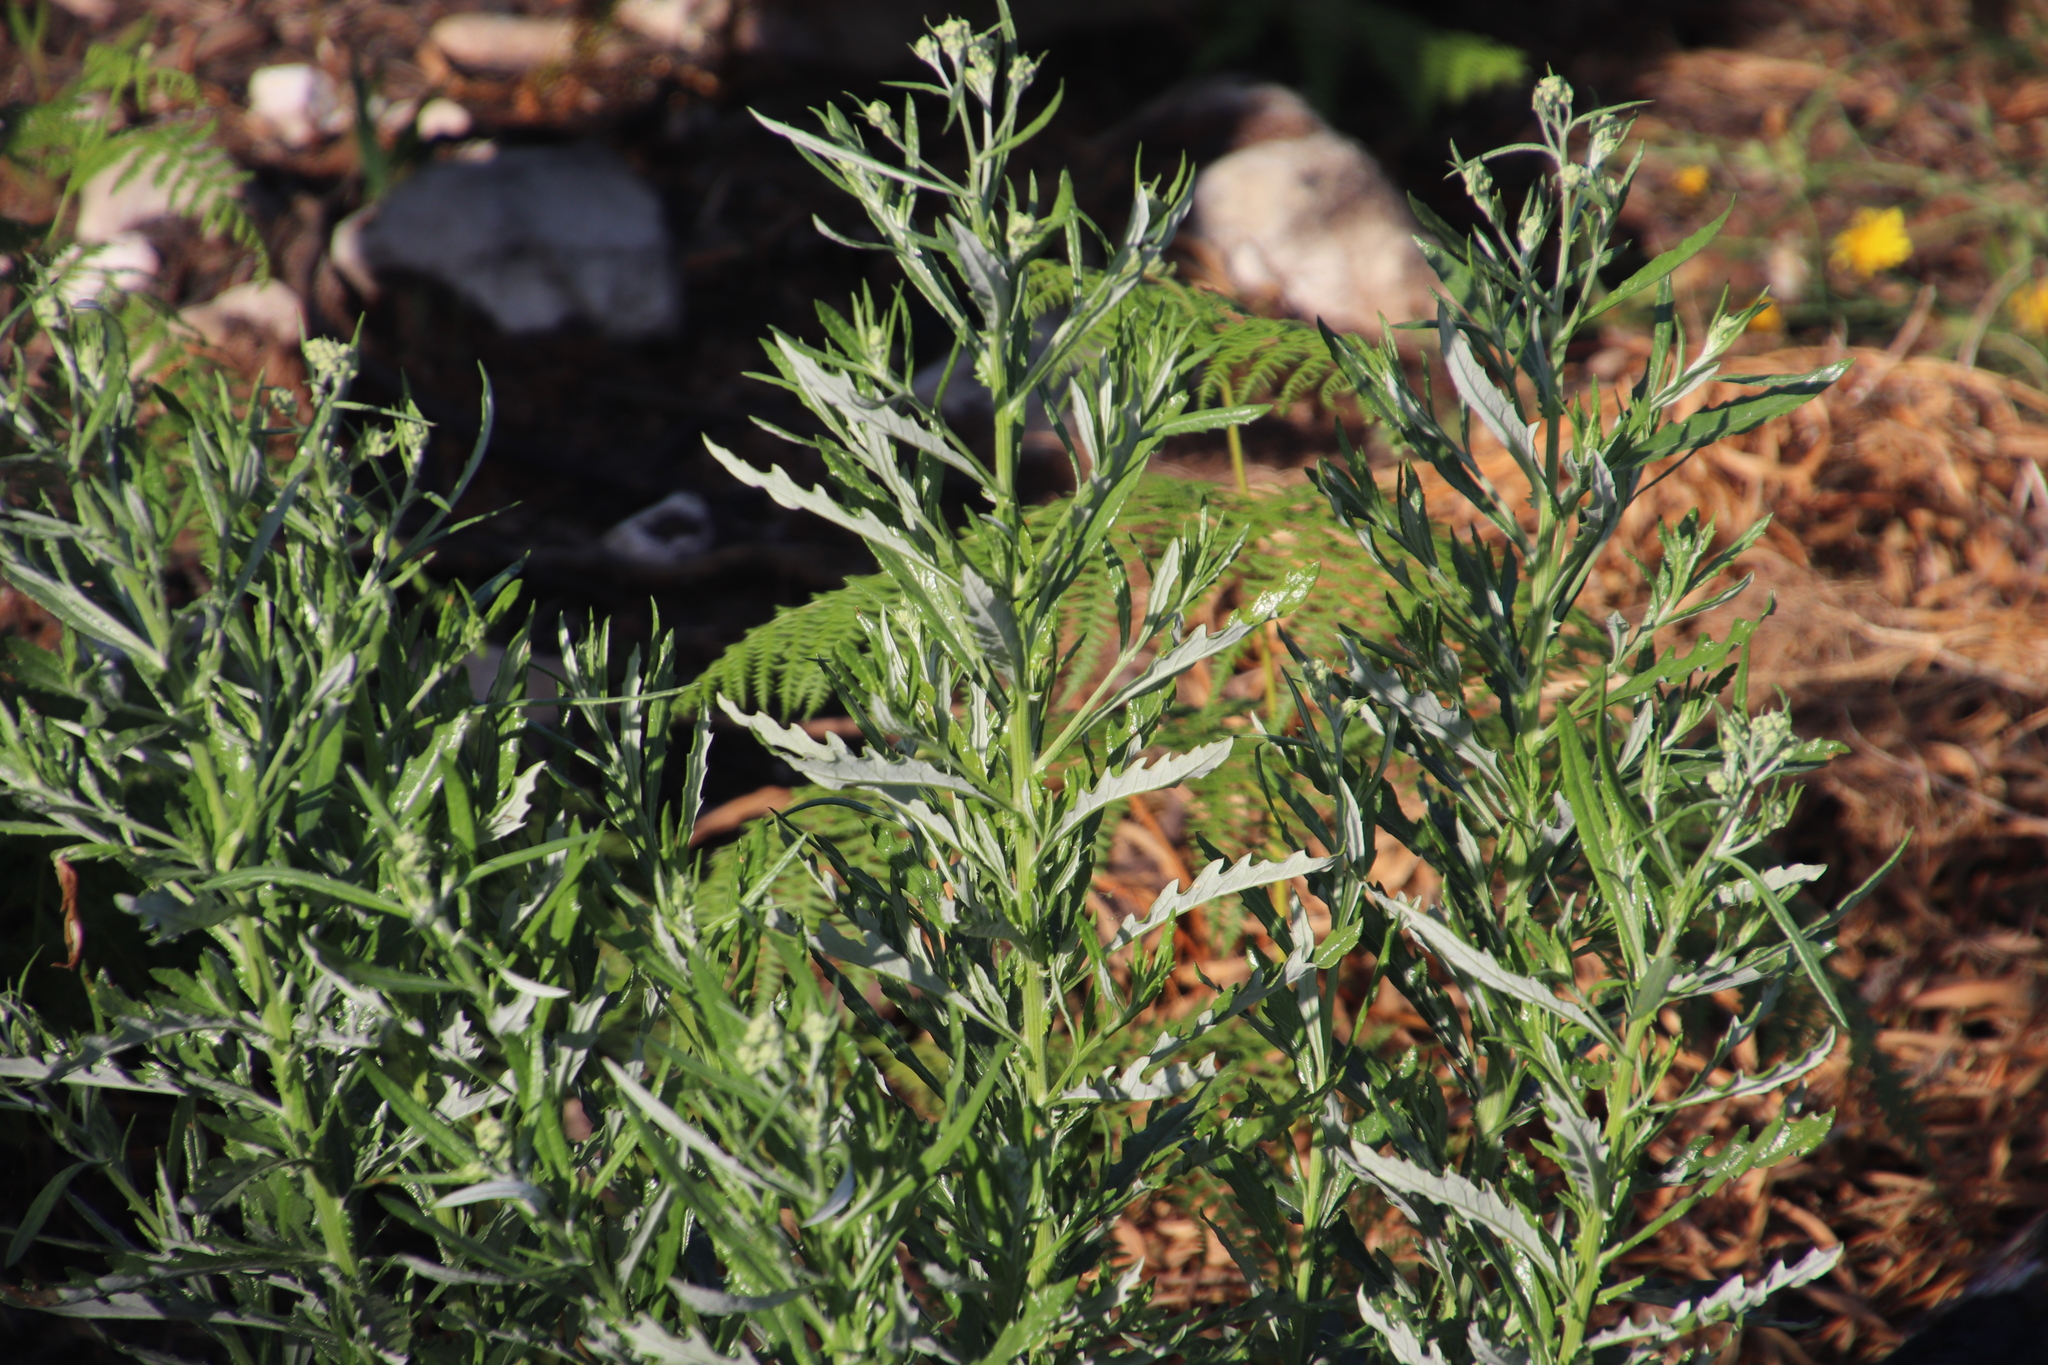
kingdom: Plantae
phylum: Tracheophyta
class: Magnoliopsida
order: Asterales
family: Asteraceae
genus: Senecio
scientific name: Senecio pterophorus
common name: Shoddy ragwort
